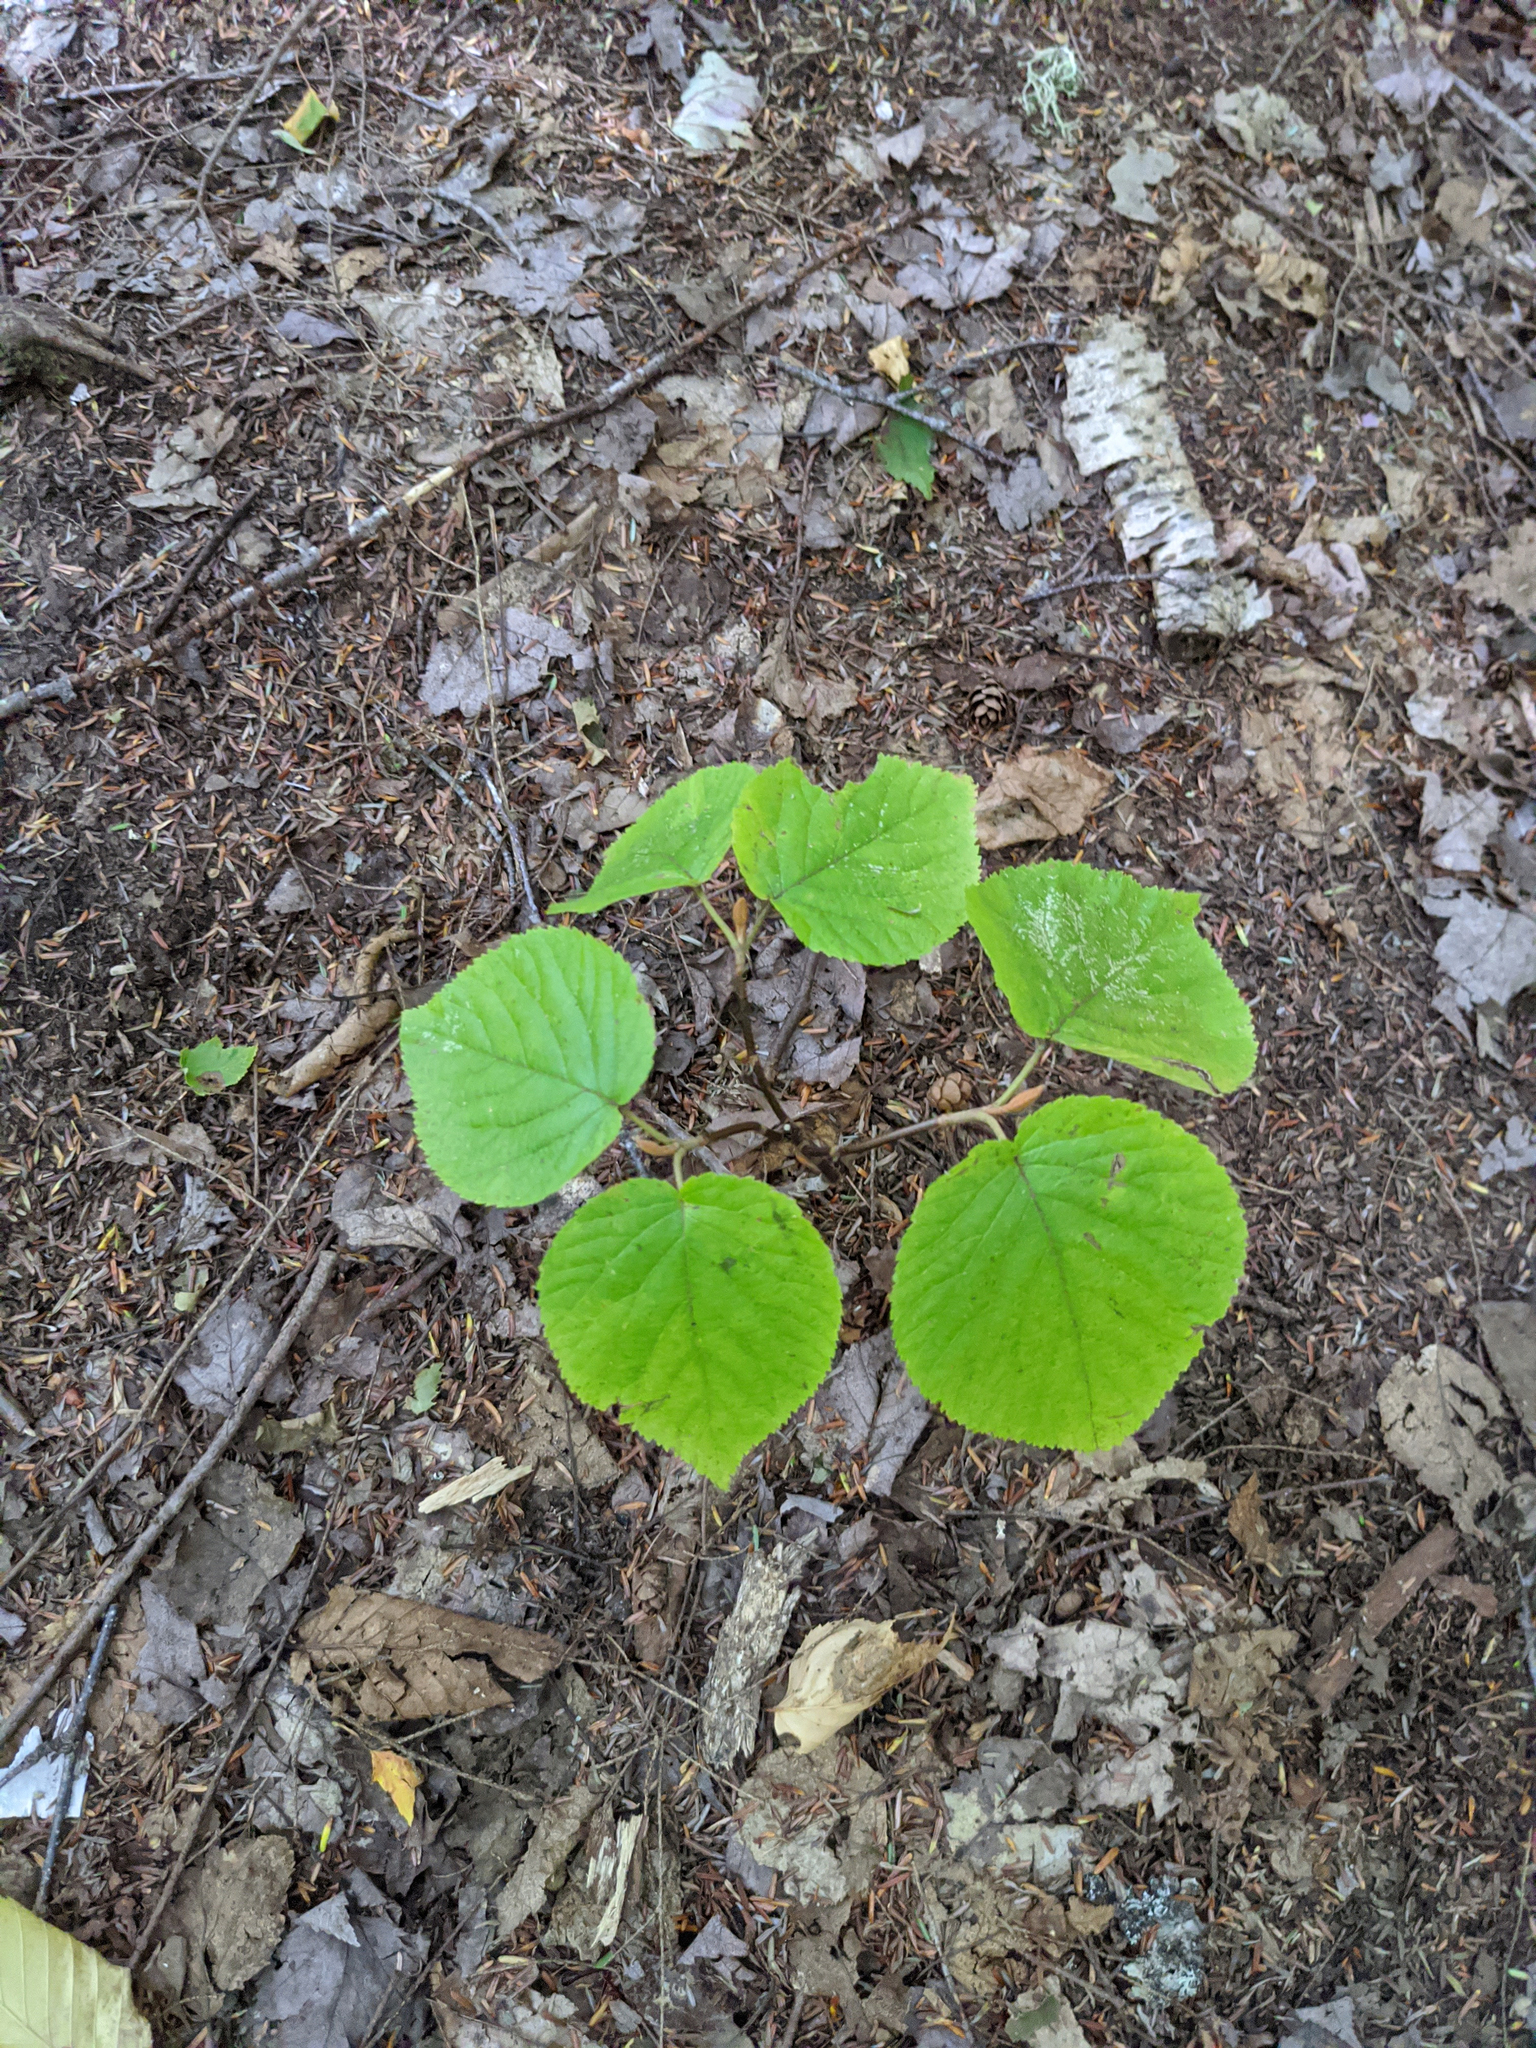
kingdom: Plantae
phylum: Tracheophyta
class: Magnoliopsida
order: Dipsacales
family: Viburnaceae
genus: Viburnum
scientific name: Viburnum lantanoides
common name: Hobblebush
